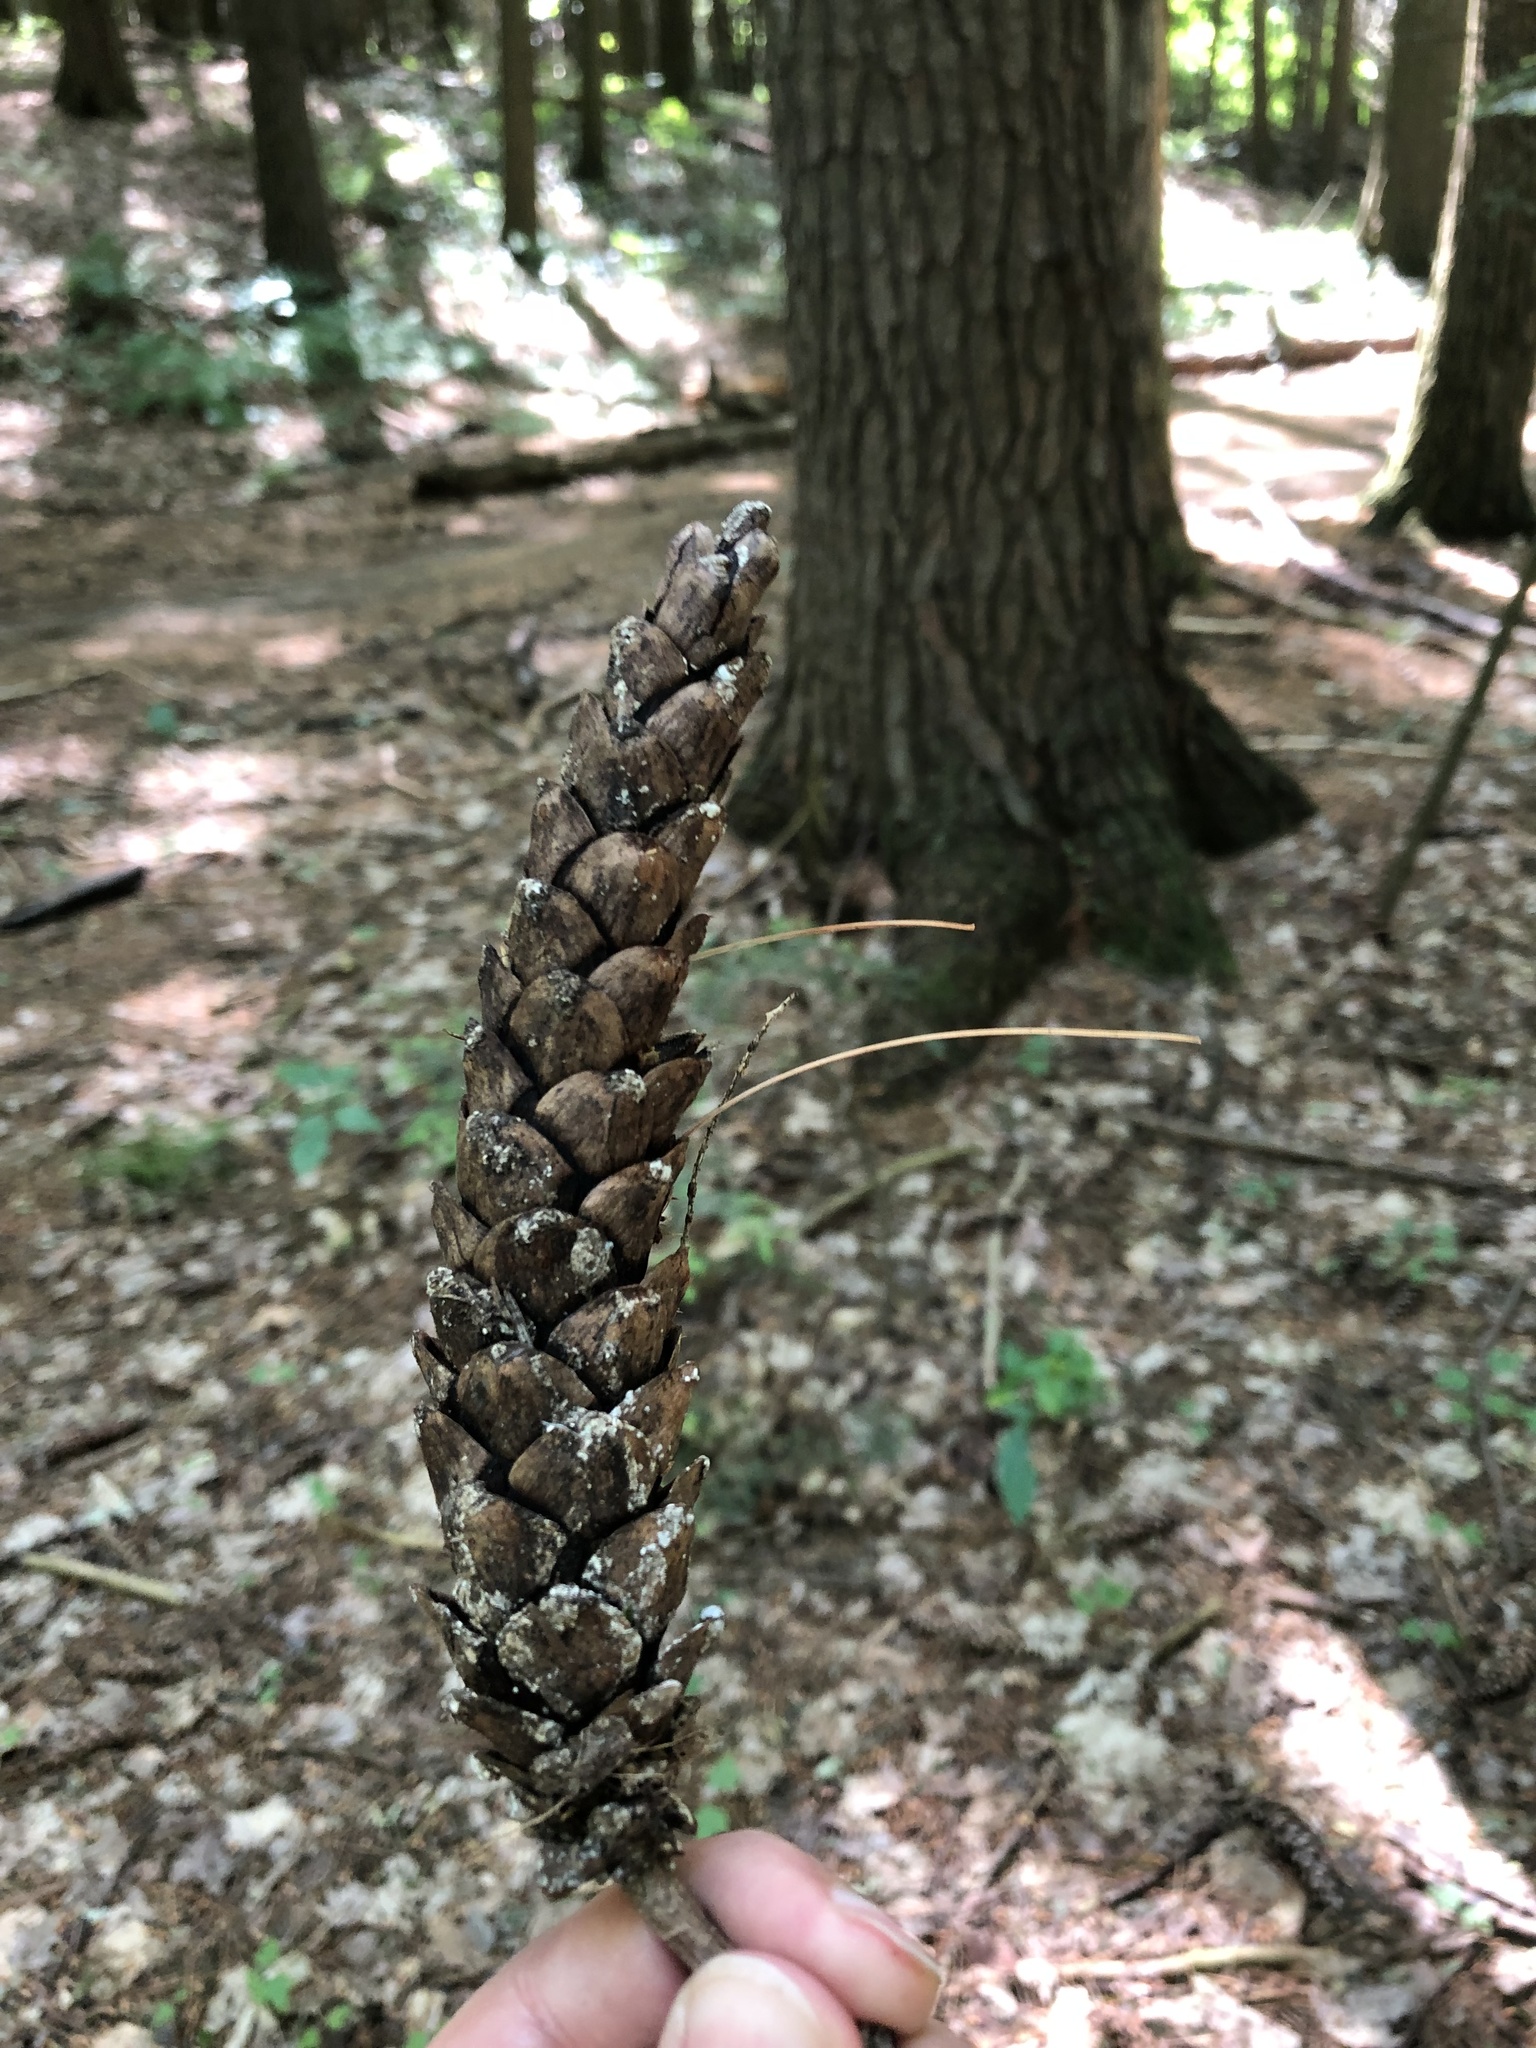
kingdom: Plantae
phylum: Tracheophyta
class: Pinopsida
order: Pinales
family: Pinaceae
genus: Pinus
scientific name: Pinus strobus
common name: Weymouth pine
